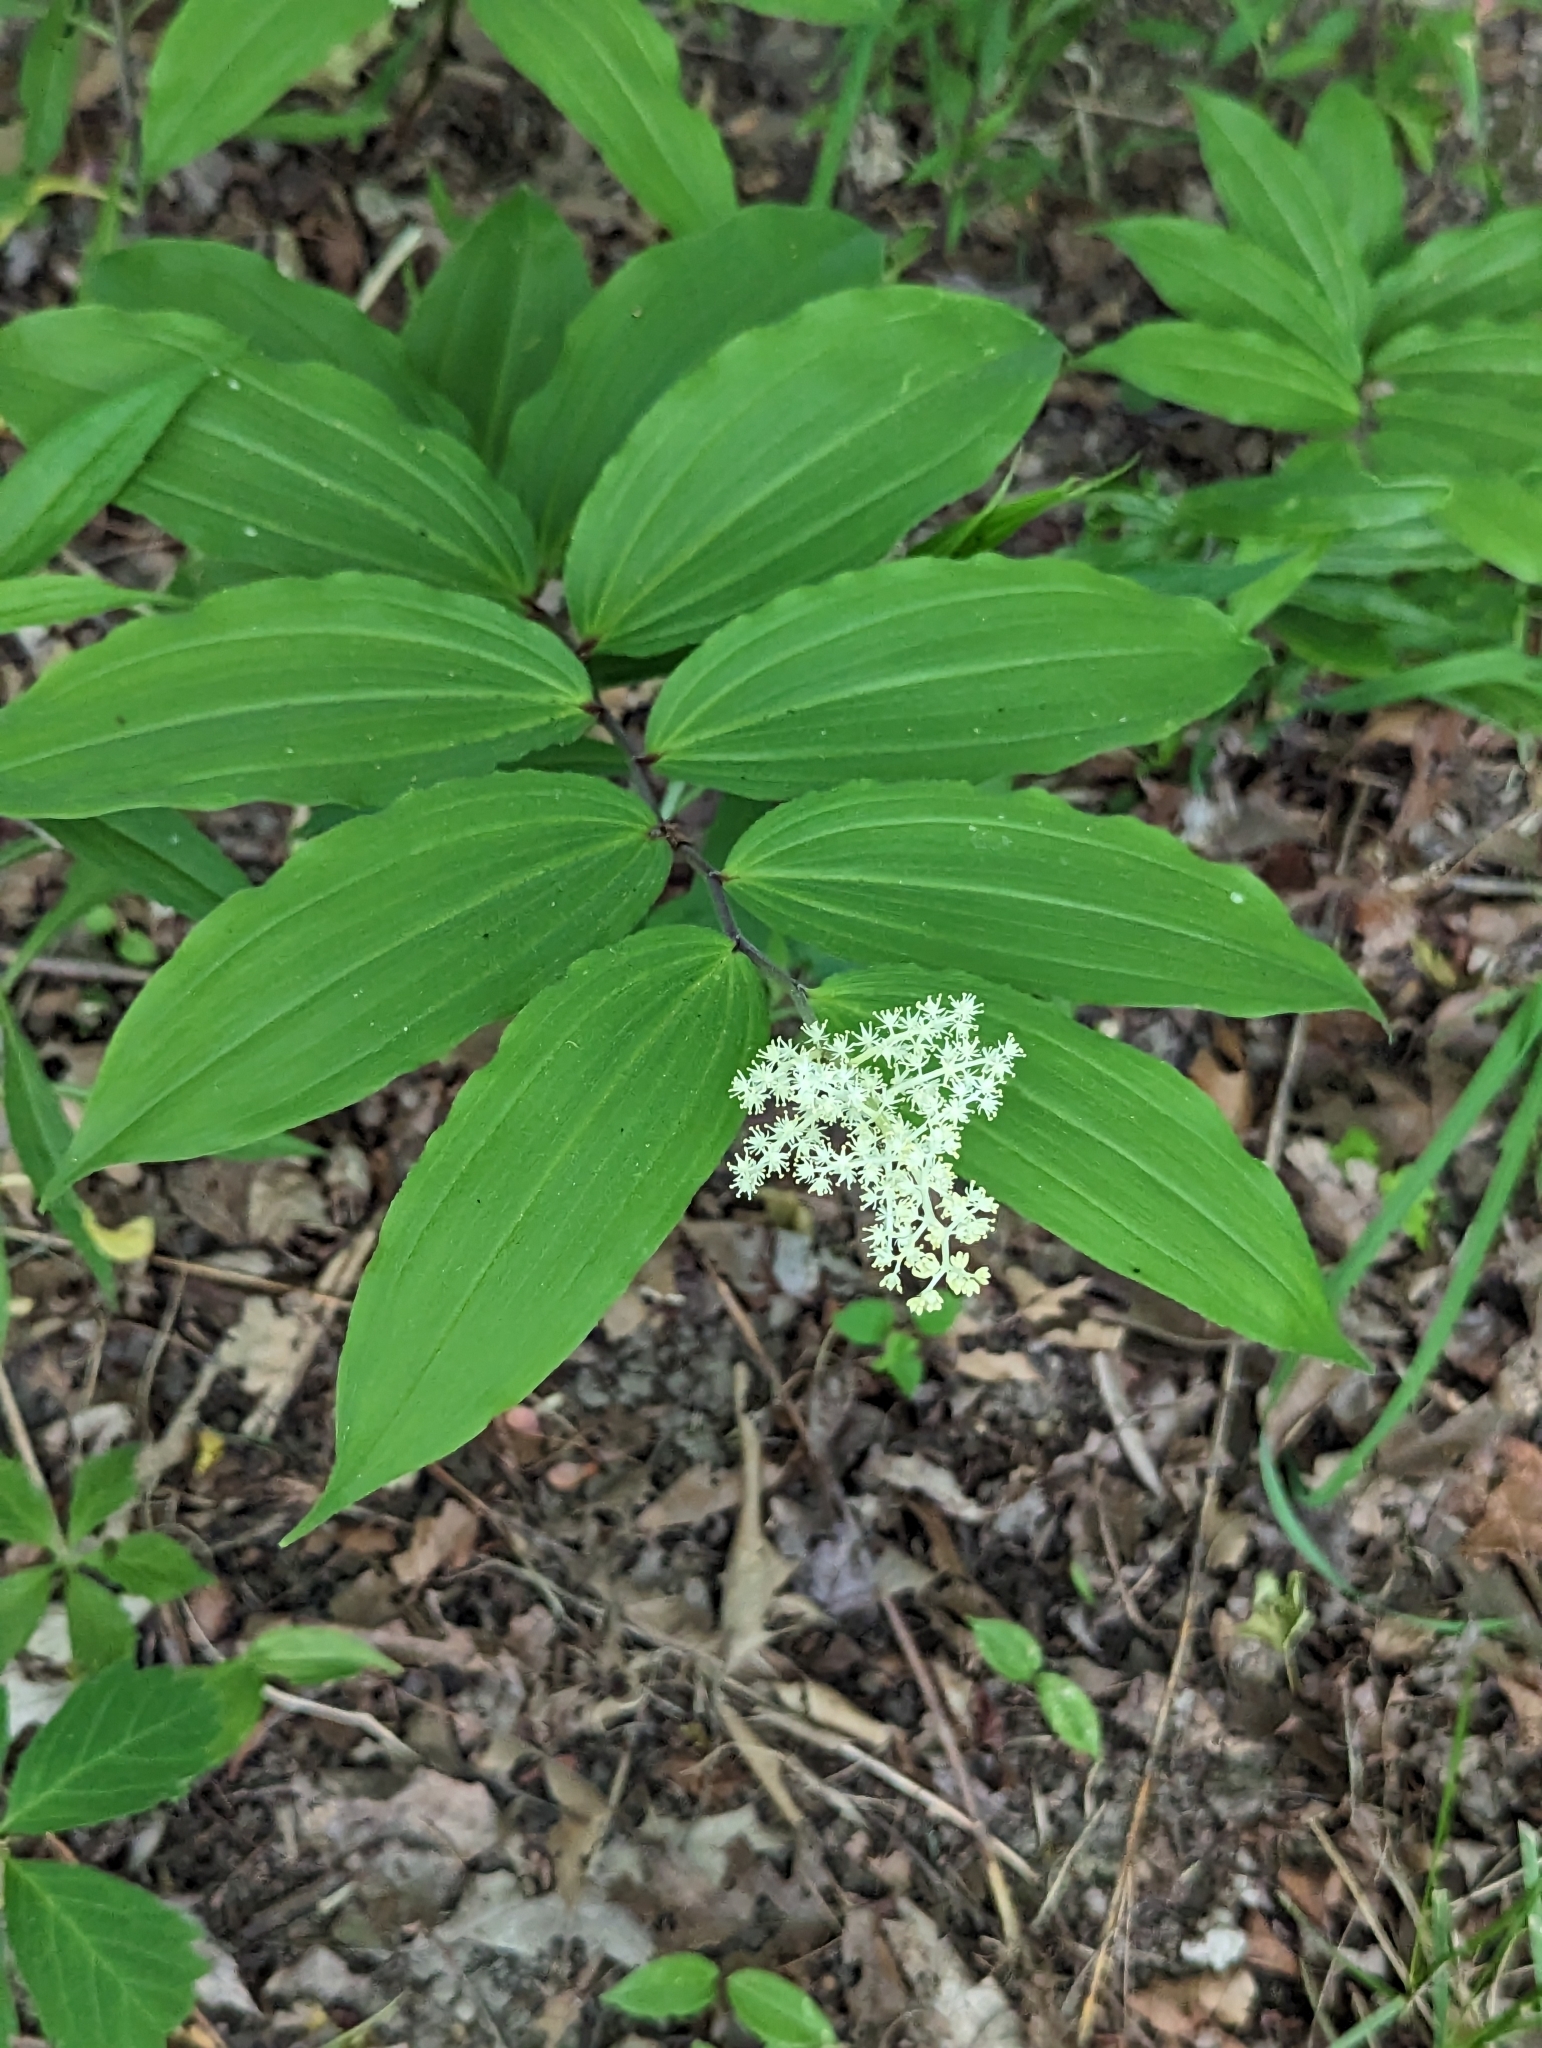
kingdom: Plantae
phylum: Tracheophyta
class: Liliopsida
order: Asparagales
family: Asparagaceae
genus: Maianthemum
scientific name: Maianthemum racemosum
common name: False spikenard
